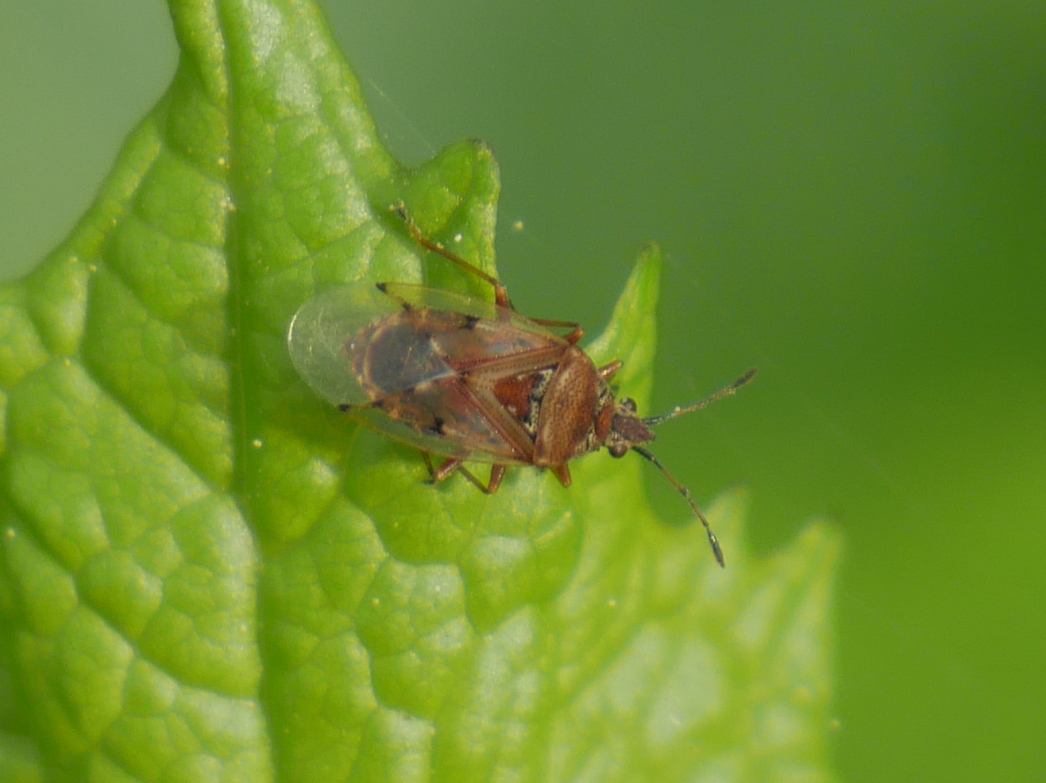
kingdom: Animalia
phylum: Arthropoda
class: Insecta
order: Hemiptera
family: Lygaeidae
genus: Kleidocerys
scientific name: Kleidocerys resedae
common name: Birch catkin bug
